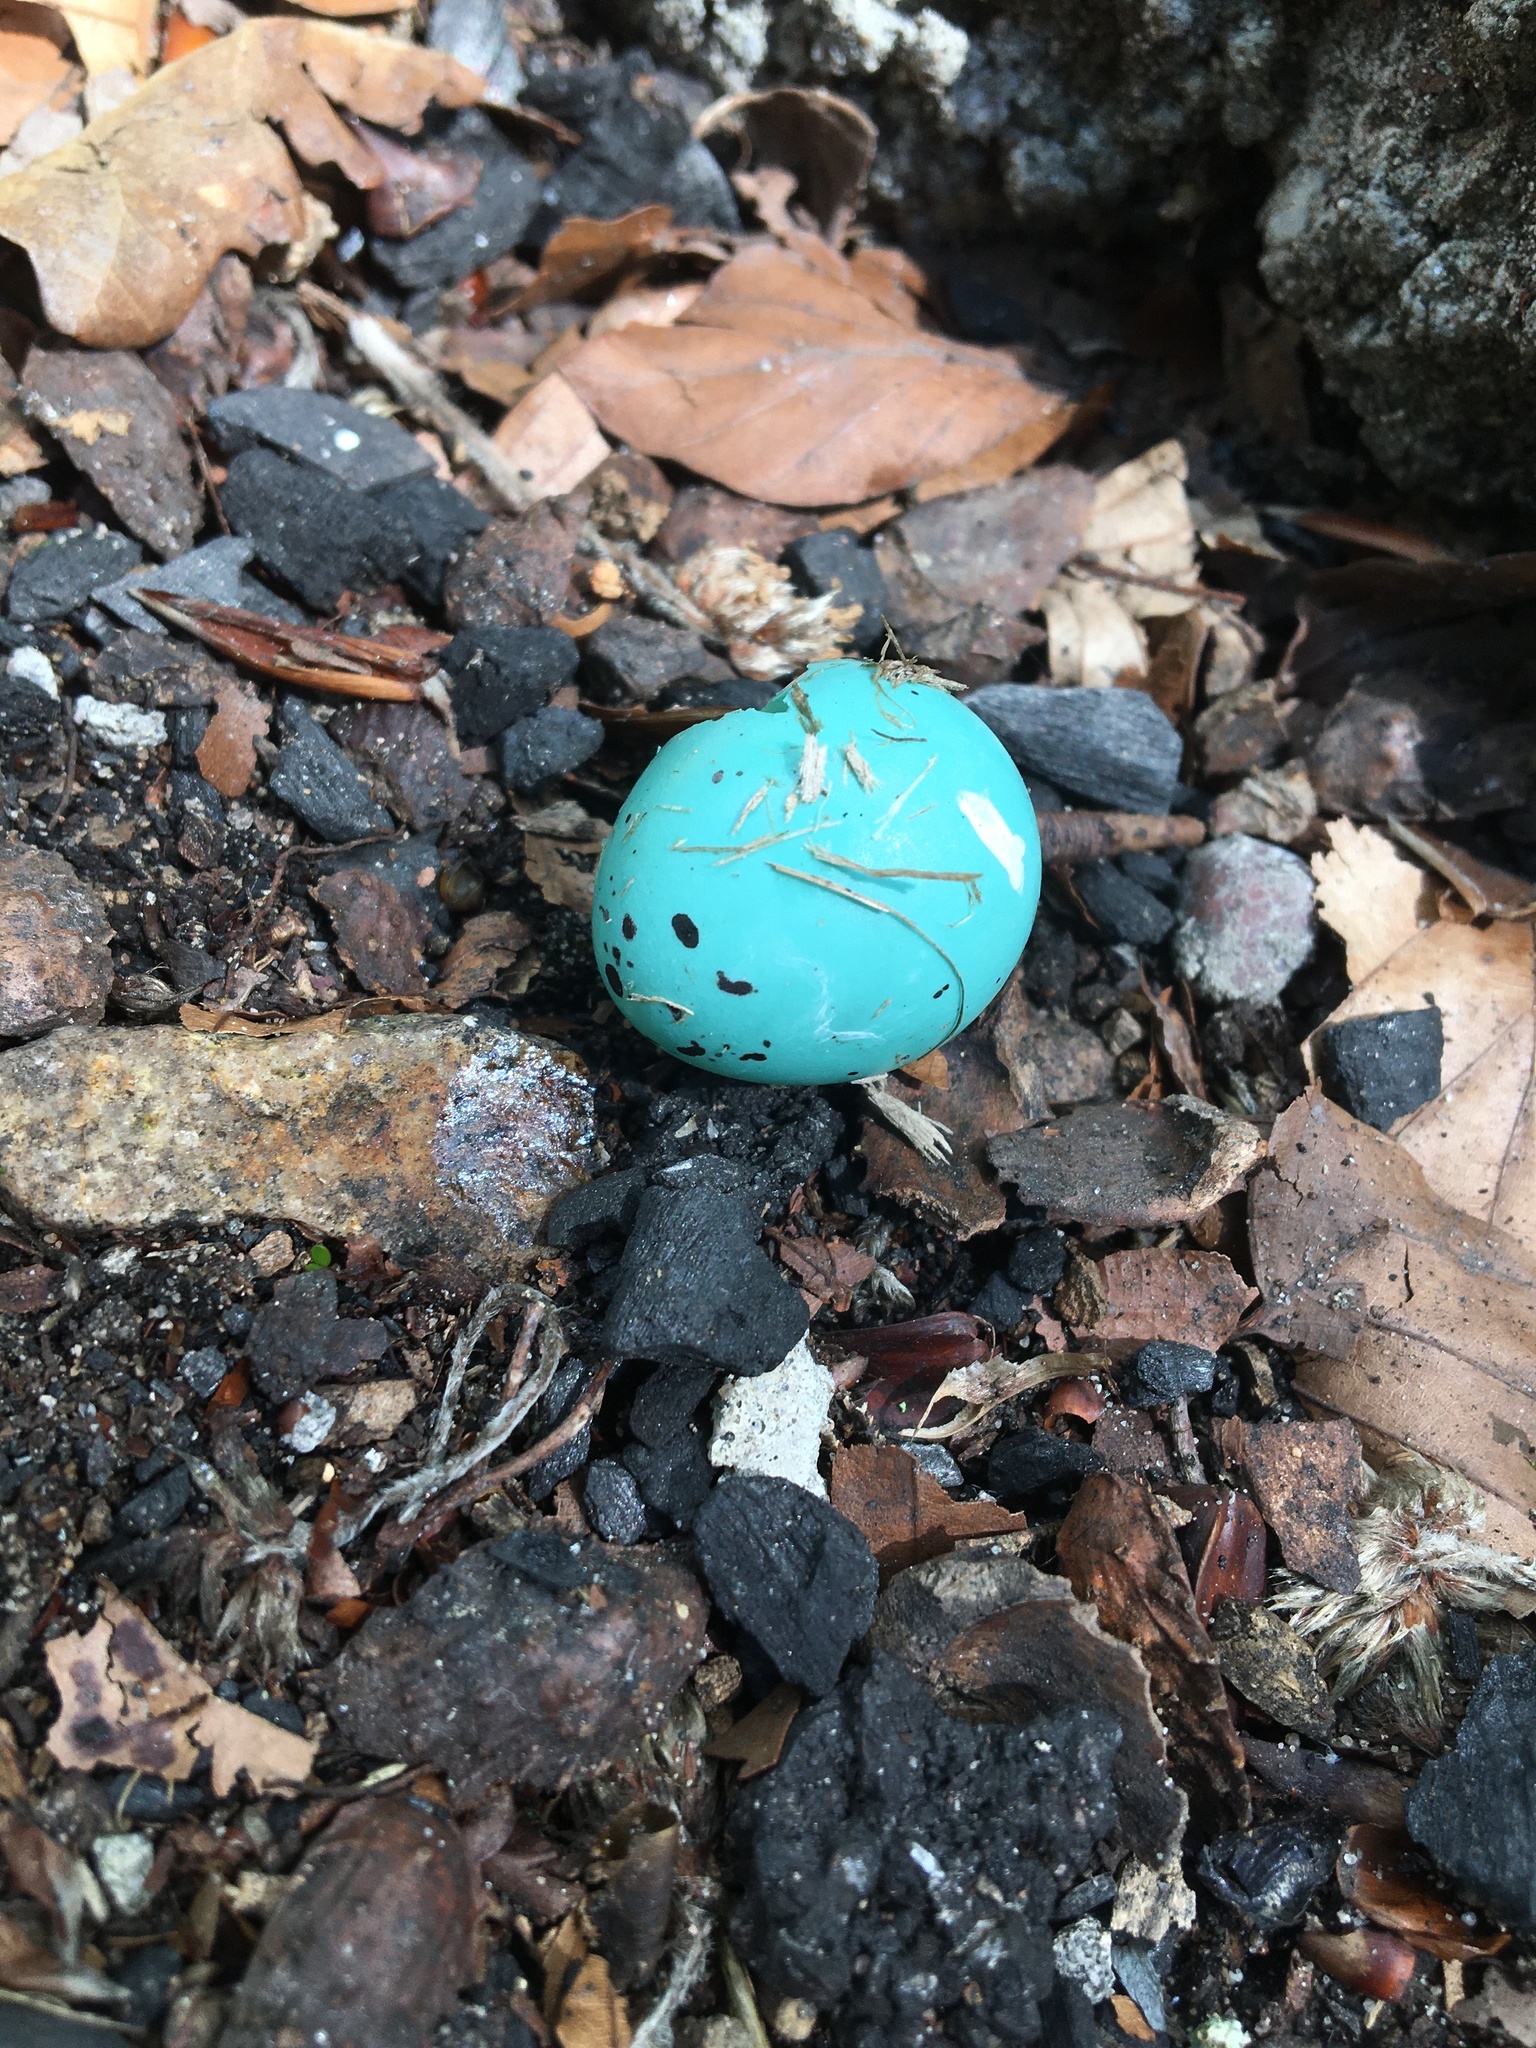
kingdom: Animalia
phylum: Chordata
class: Aves
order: Passeriformes
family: Turdidae
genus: Turdus
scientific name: Turdus philomelos
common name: Song thrush
